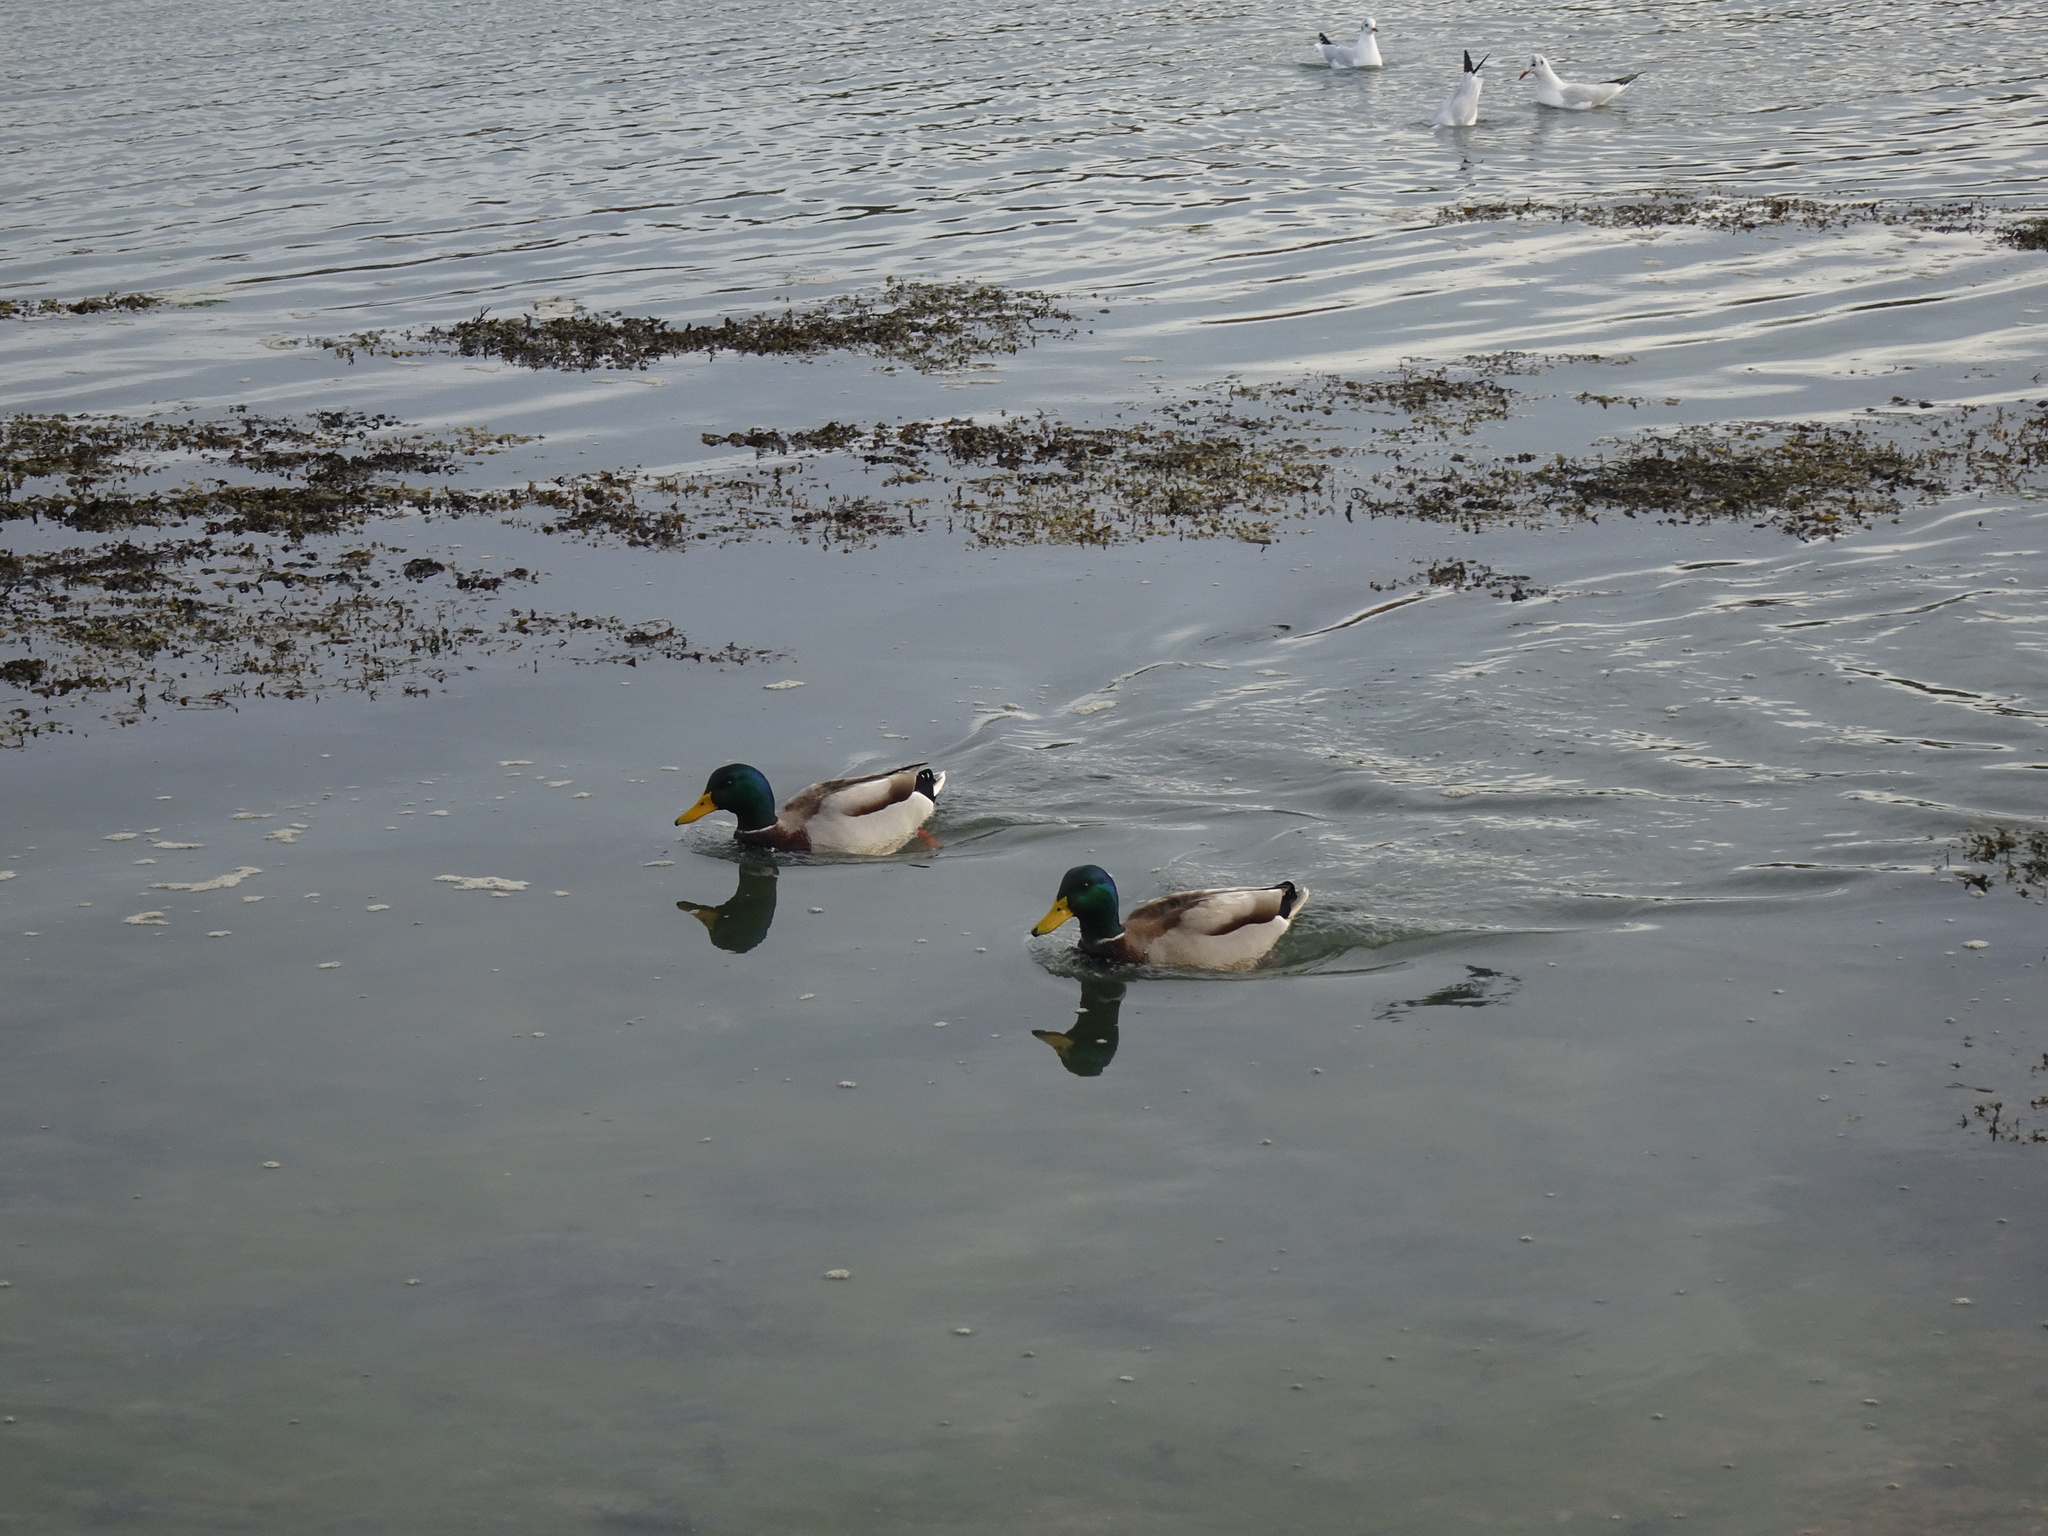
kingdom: Animalia
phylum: Chordata
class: Aves
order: Anseriformes
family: Anatidae
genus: Anas
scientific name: Anas platyrhynchos
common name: Mallard
